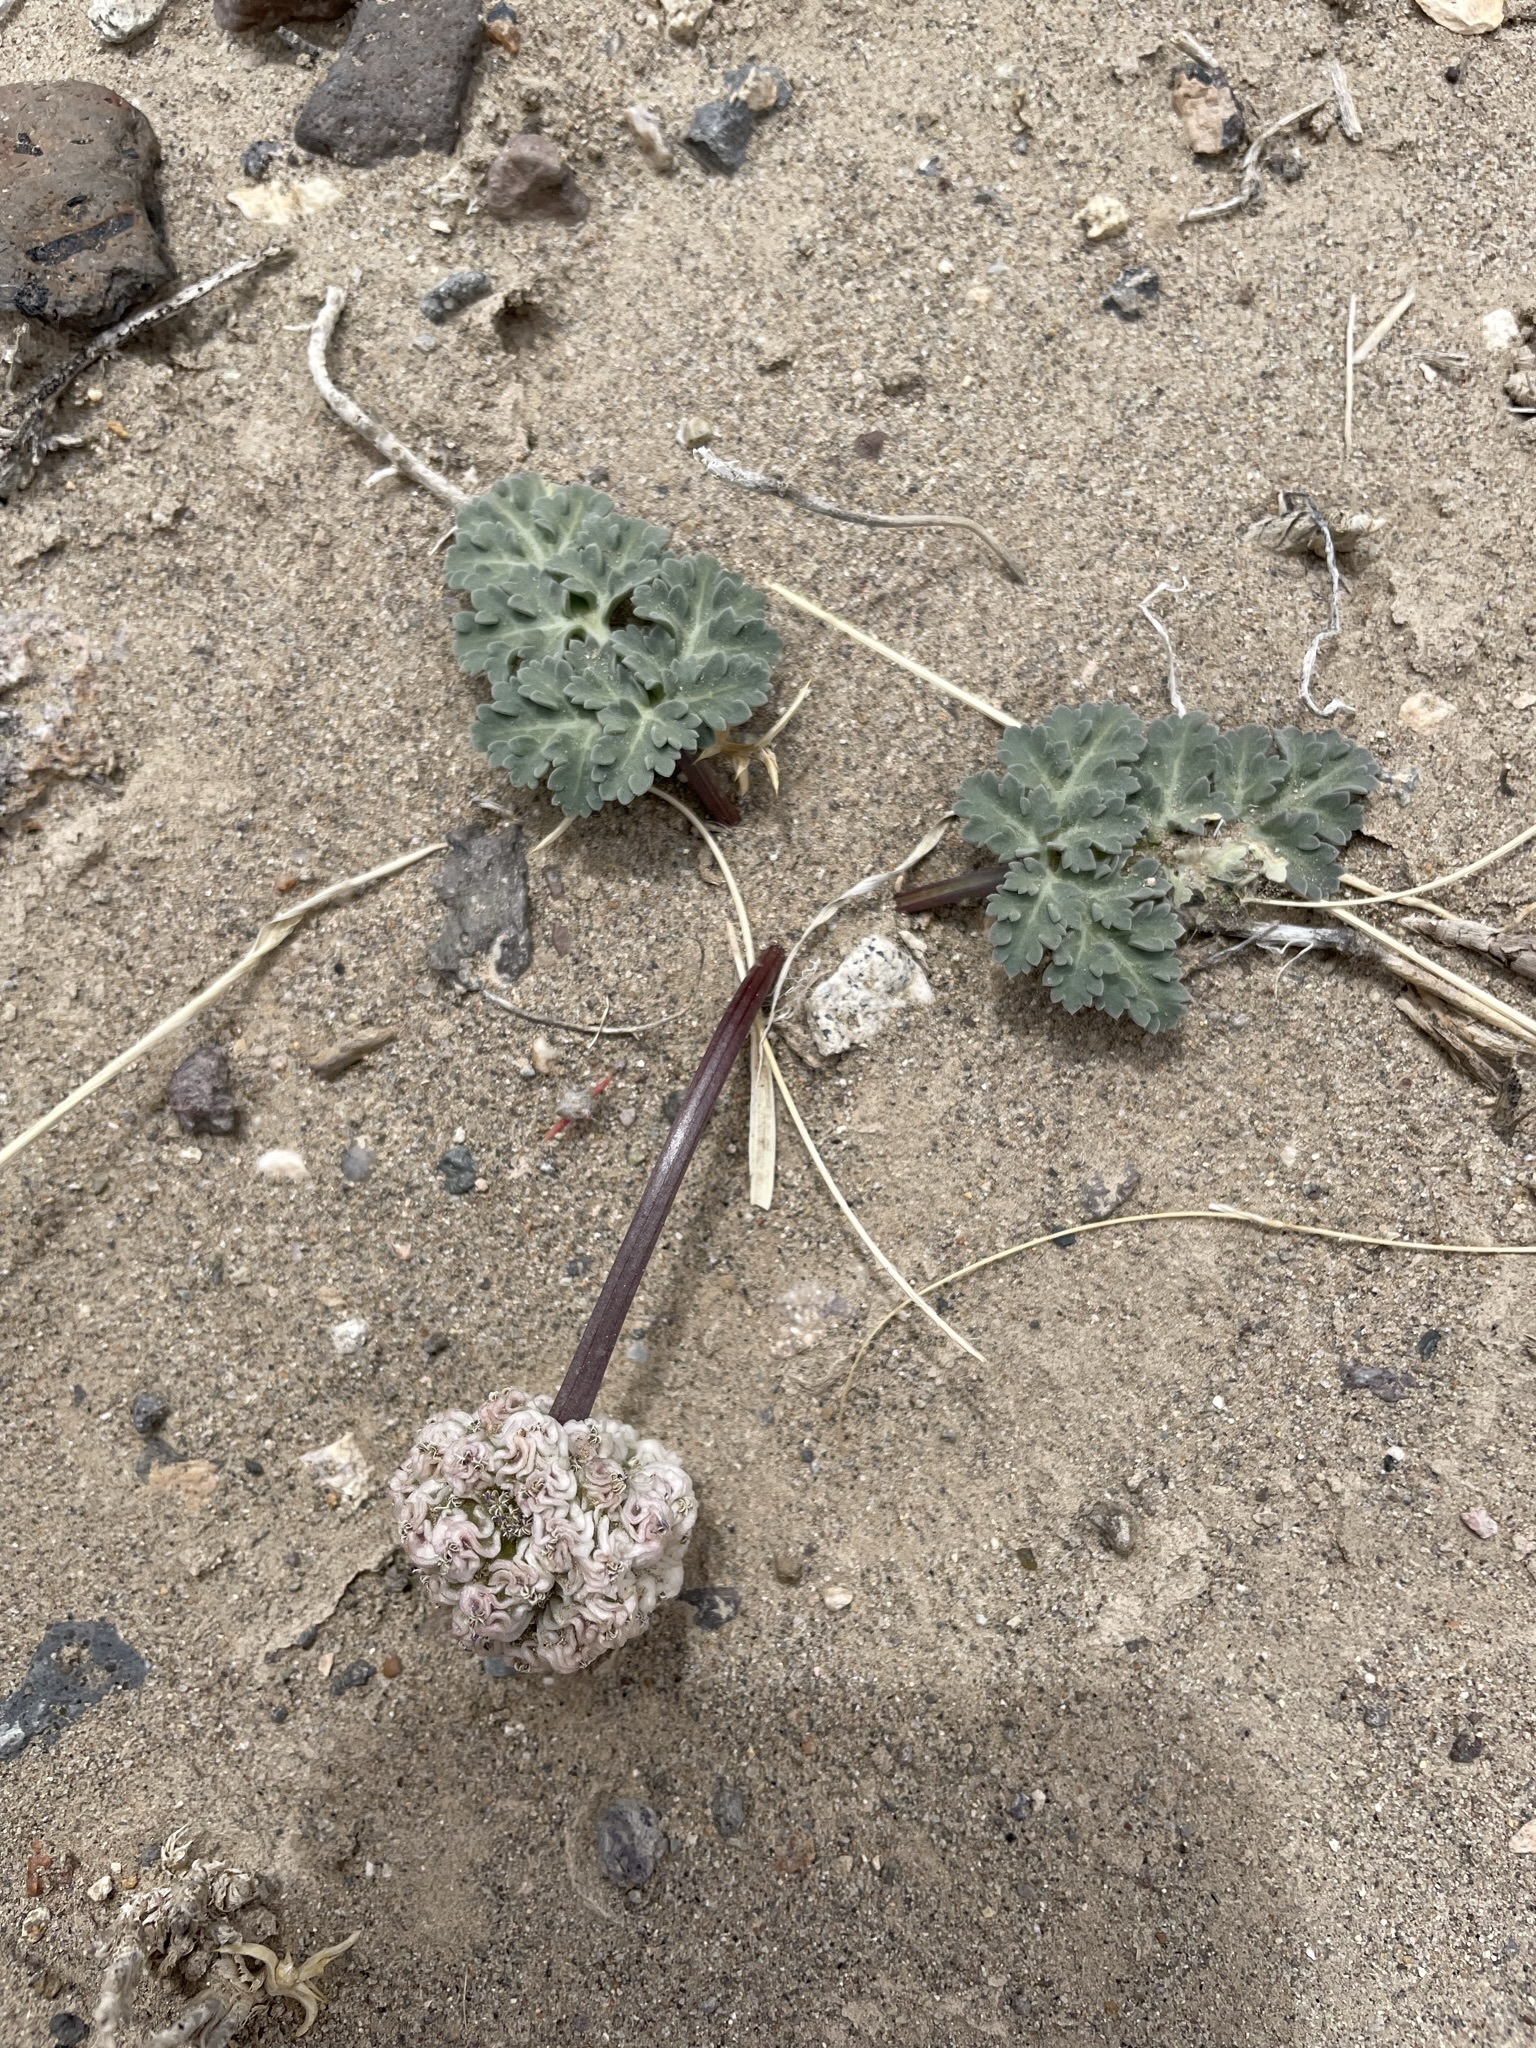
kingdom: Plantae
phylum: Tracheophyta
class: Magnoliopsida
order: Apiales
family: Apiaceae
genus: Cymopterus
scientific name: Cymopterus globosus
